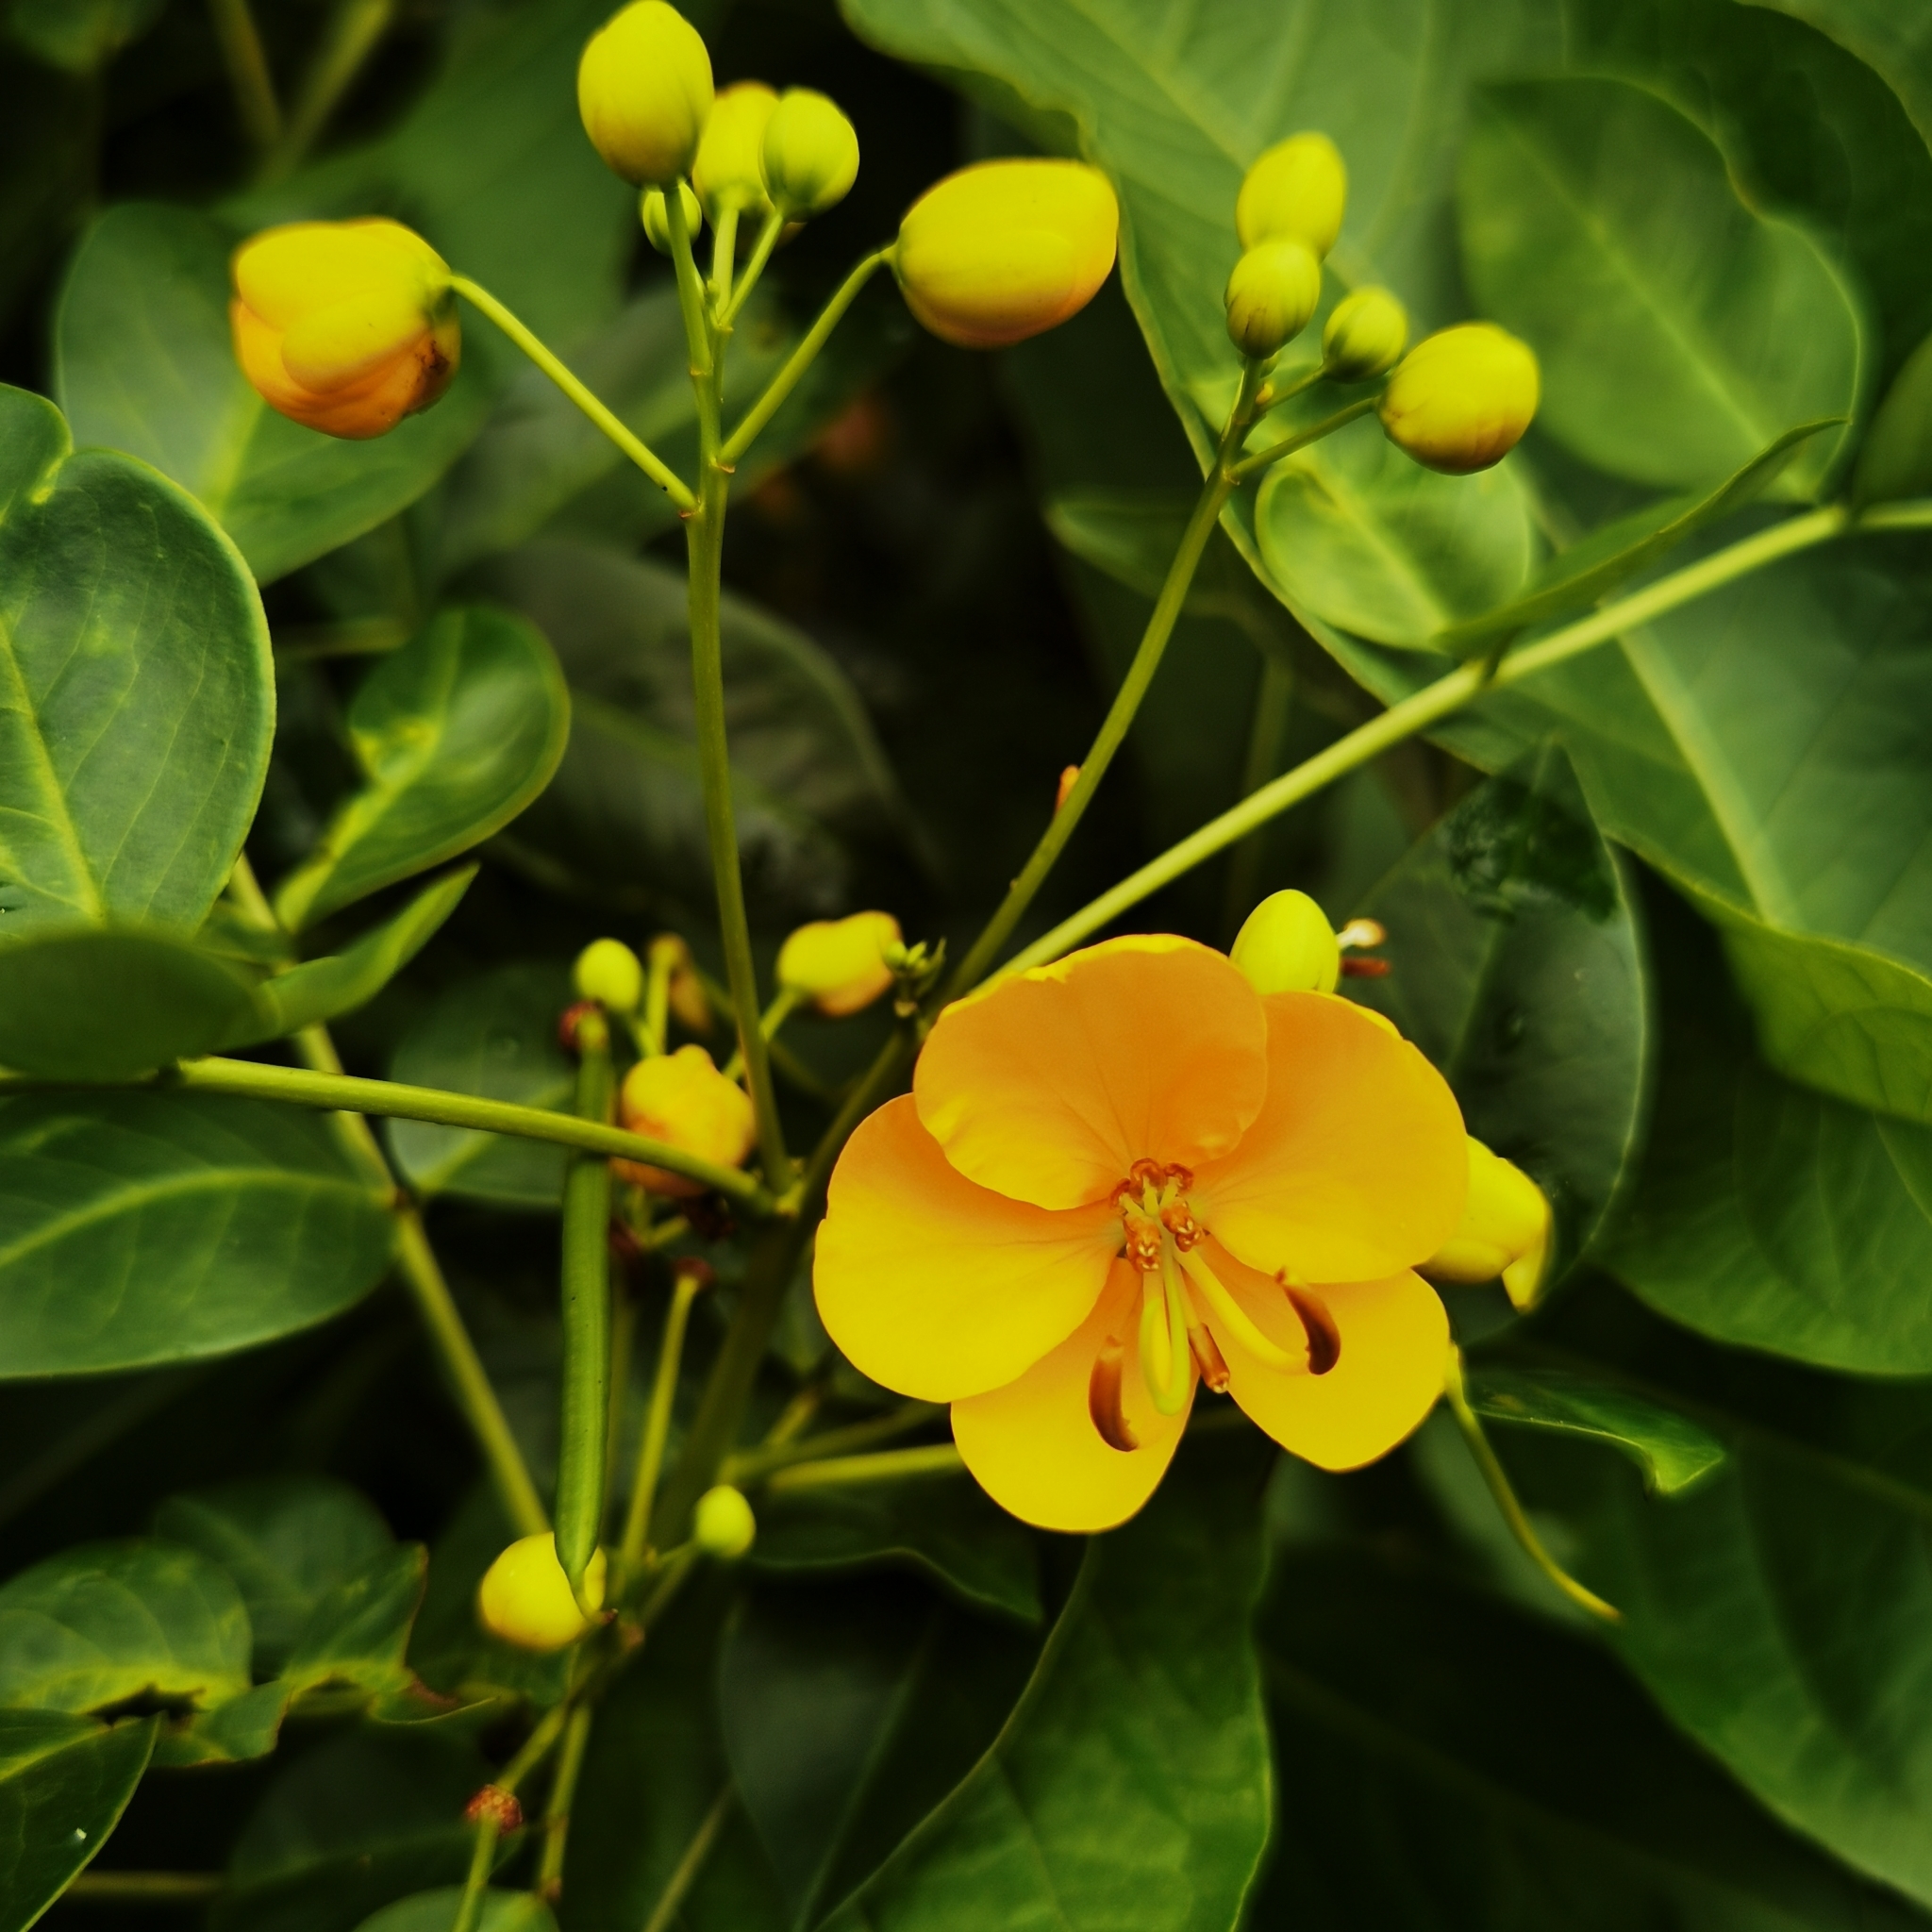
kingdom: Plantae
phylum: Tracheophyta
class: Magnoliopsida
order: Fabales
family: Fabaceae
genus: Senna
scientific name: Senna septemtrionalis
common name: Arsenic bush
